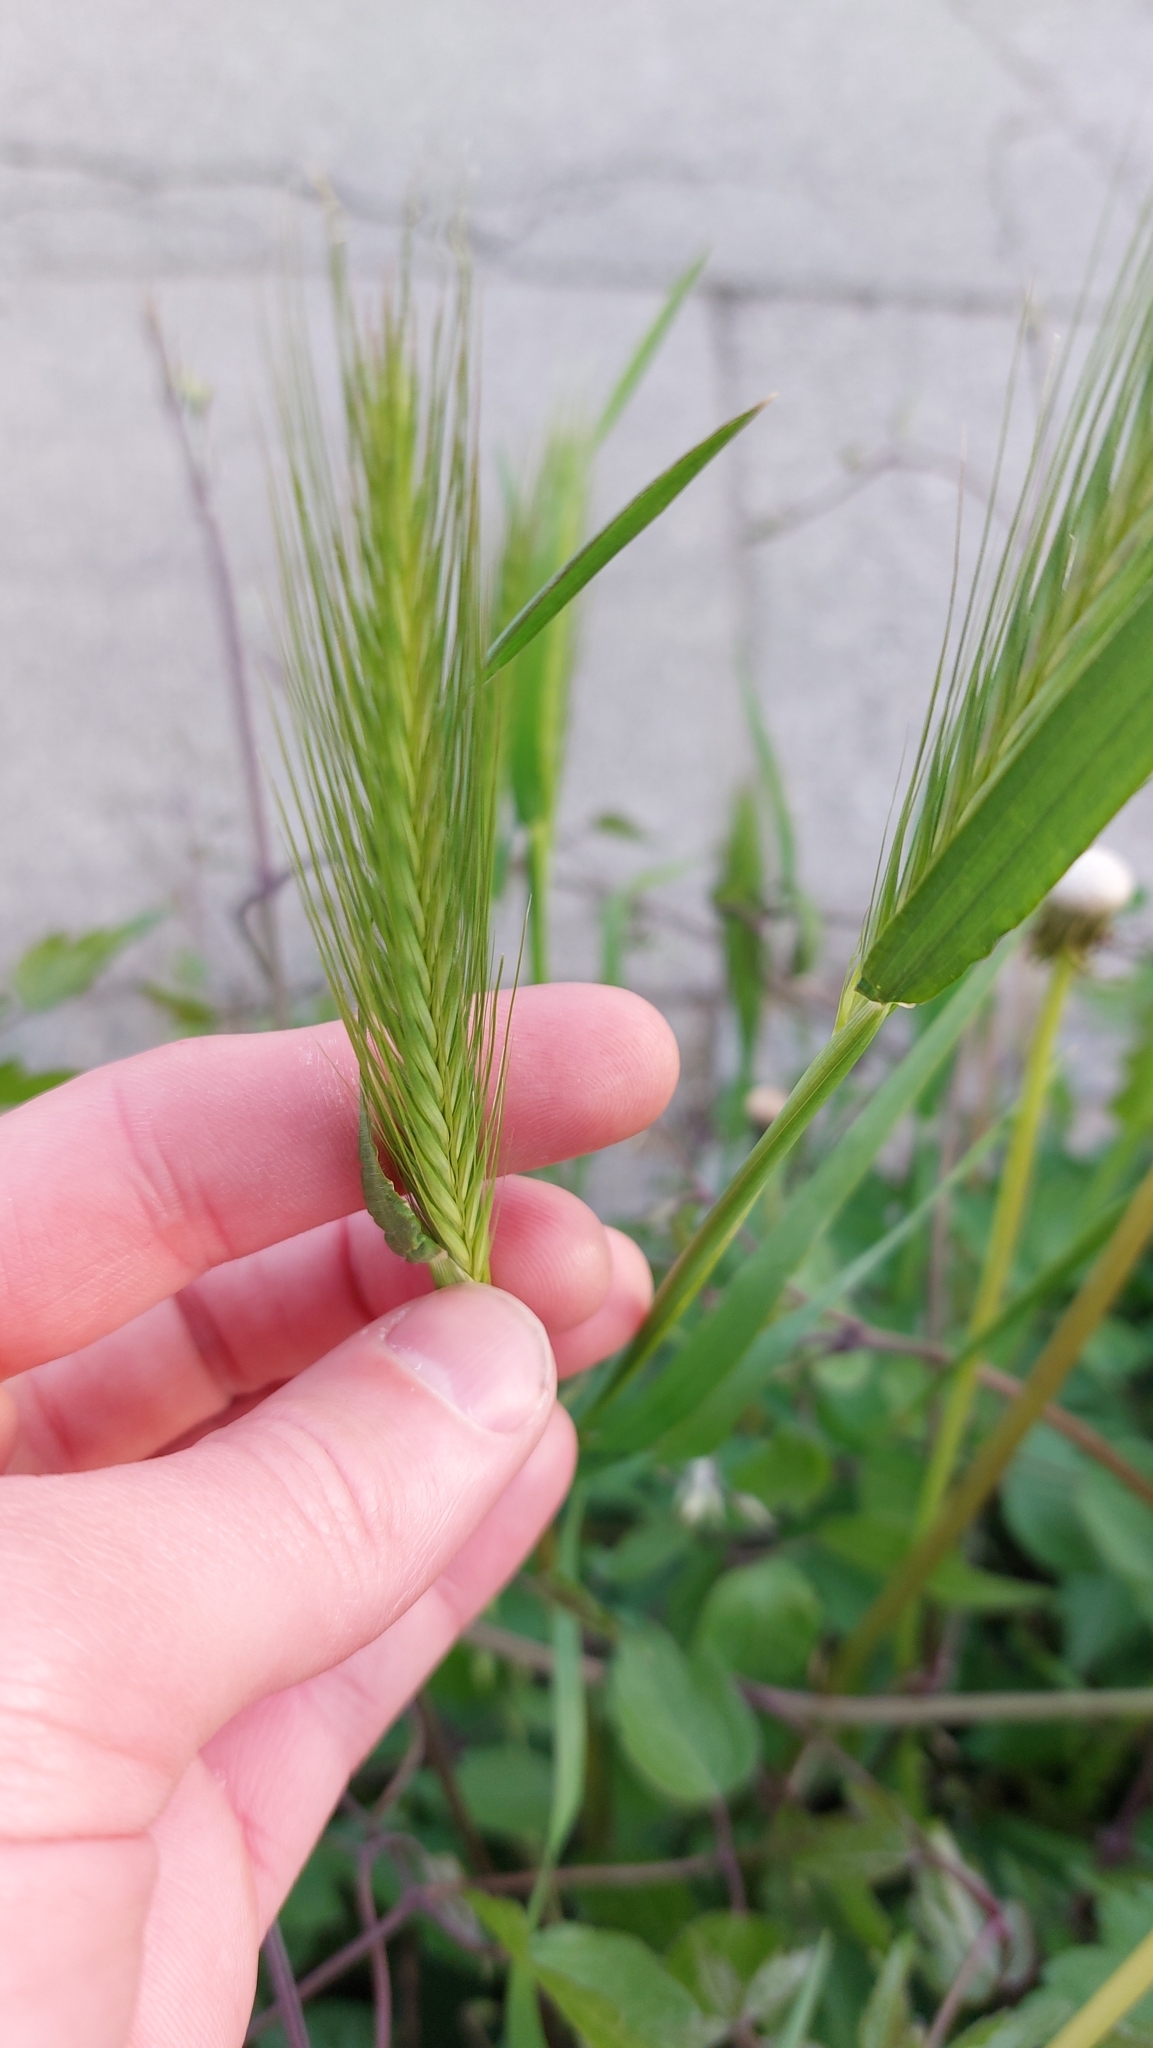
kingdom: Plantae
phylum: Tracheophyta
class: Liliopsida
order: Poales
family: Poaceae
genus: Hordeum
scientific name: Hordeum murinum
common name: Wall barley
